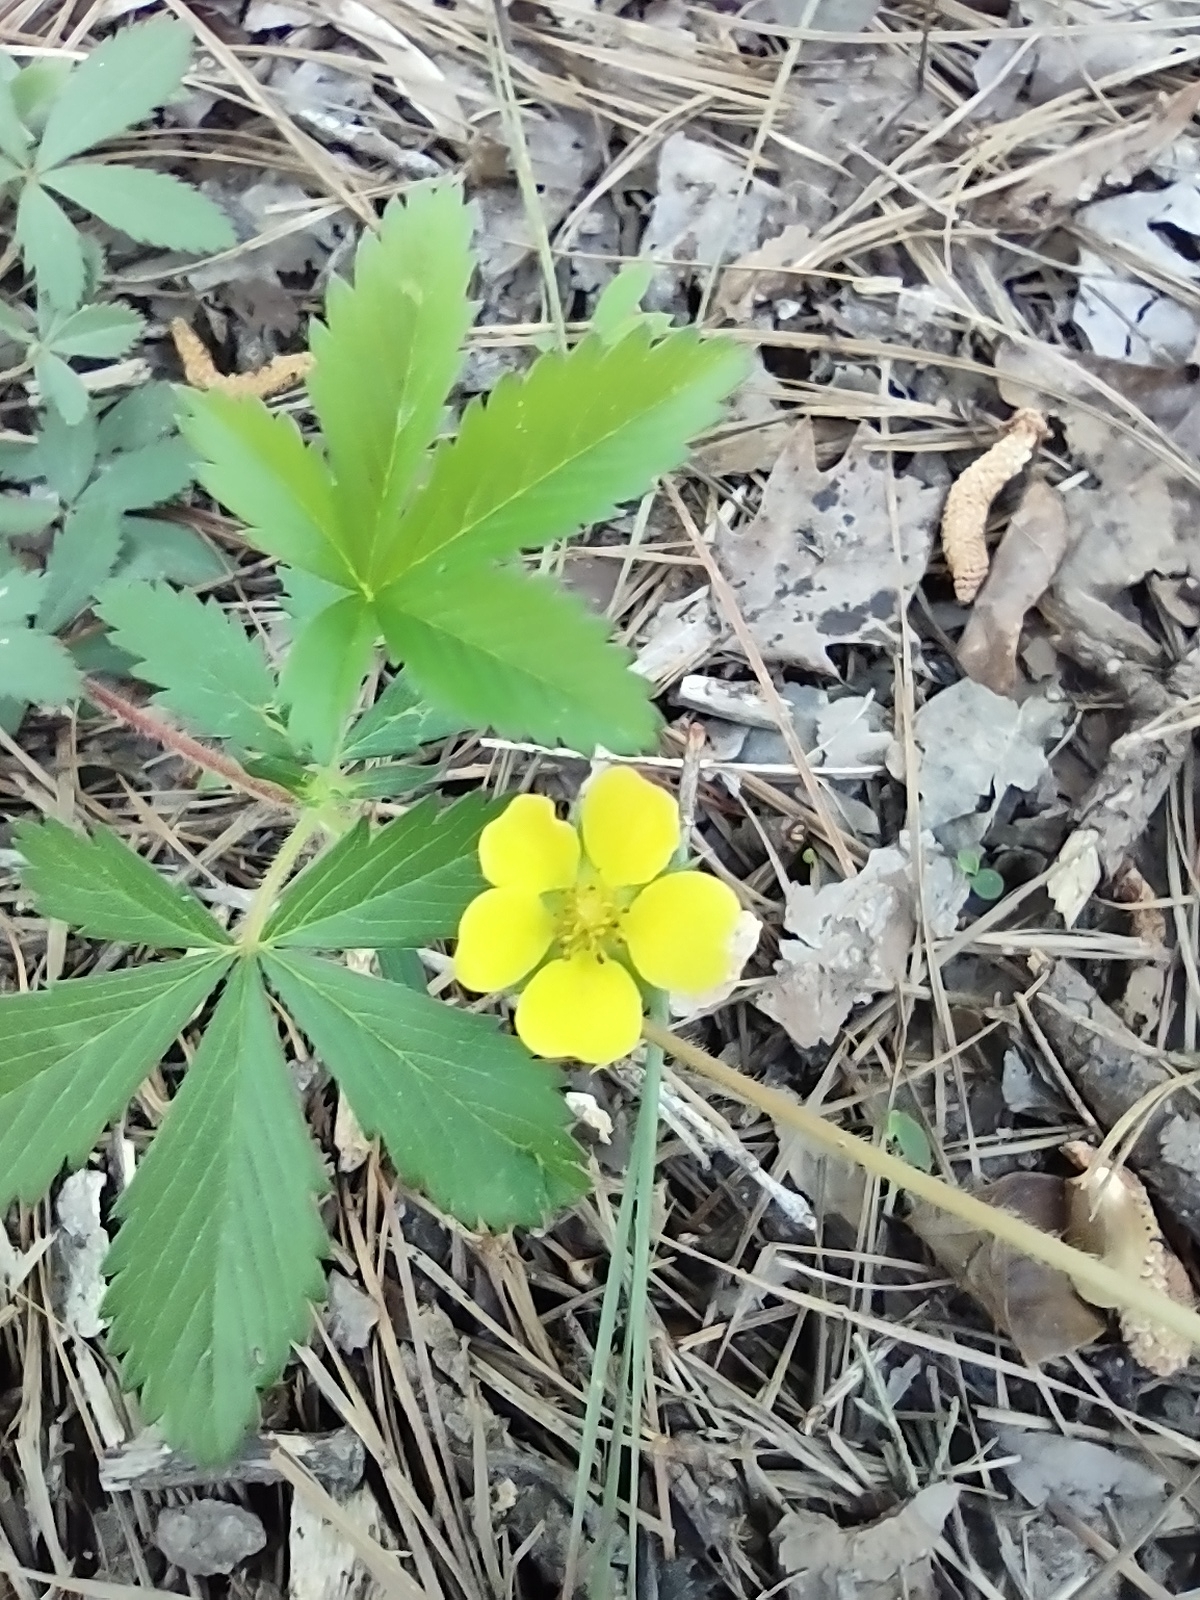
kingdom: Plantae
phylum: Tracheophyta
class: Magnoliopsida
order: Rosales
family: Rosaceae
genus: Potentilla
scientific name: Potentilla simplex
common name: Old field cinquefoil
